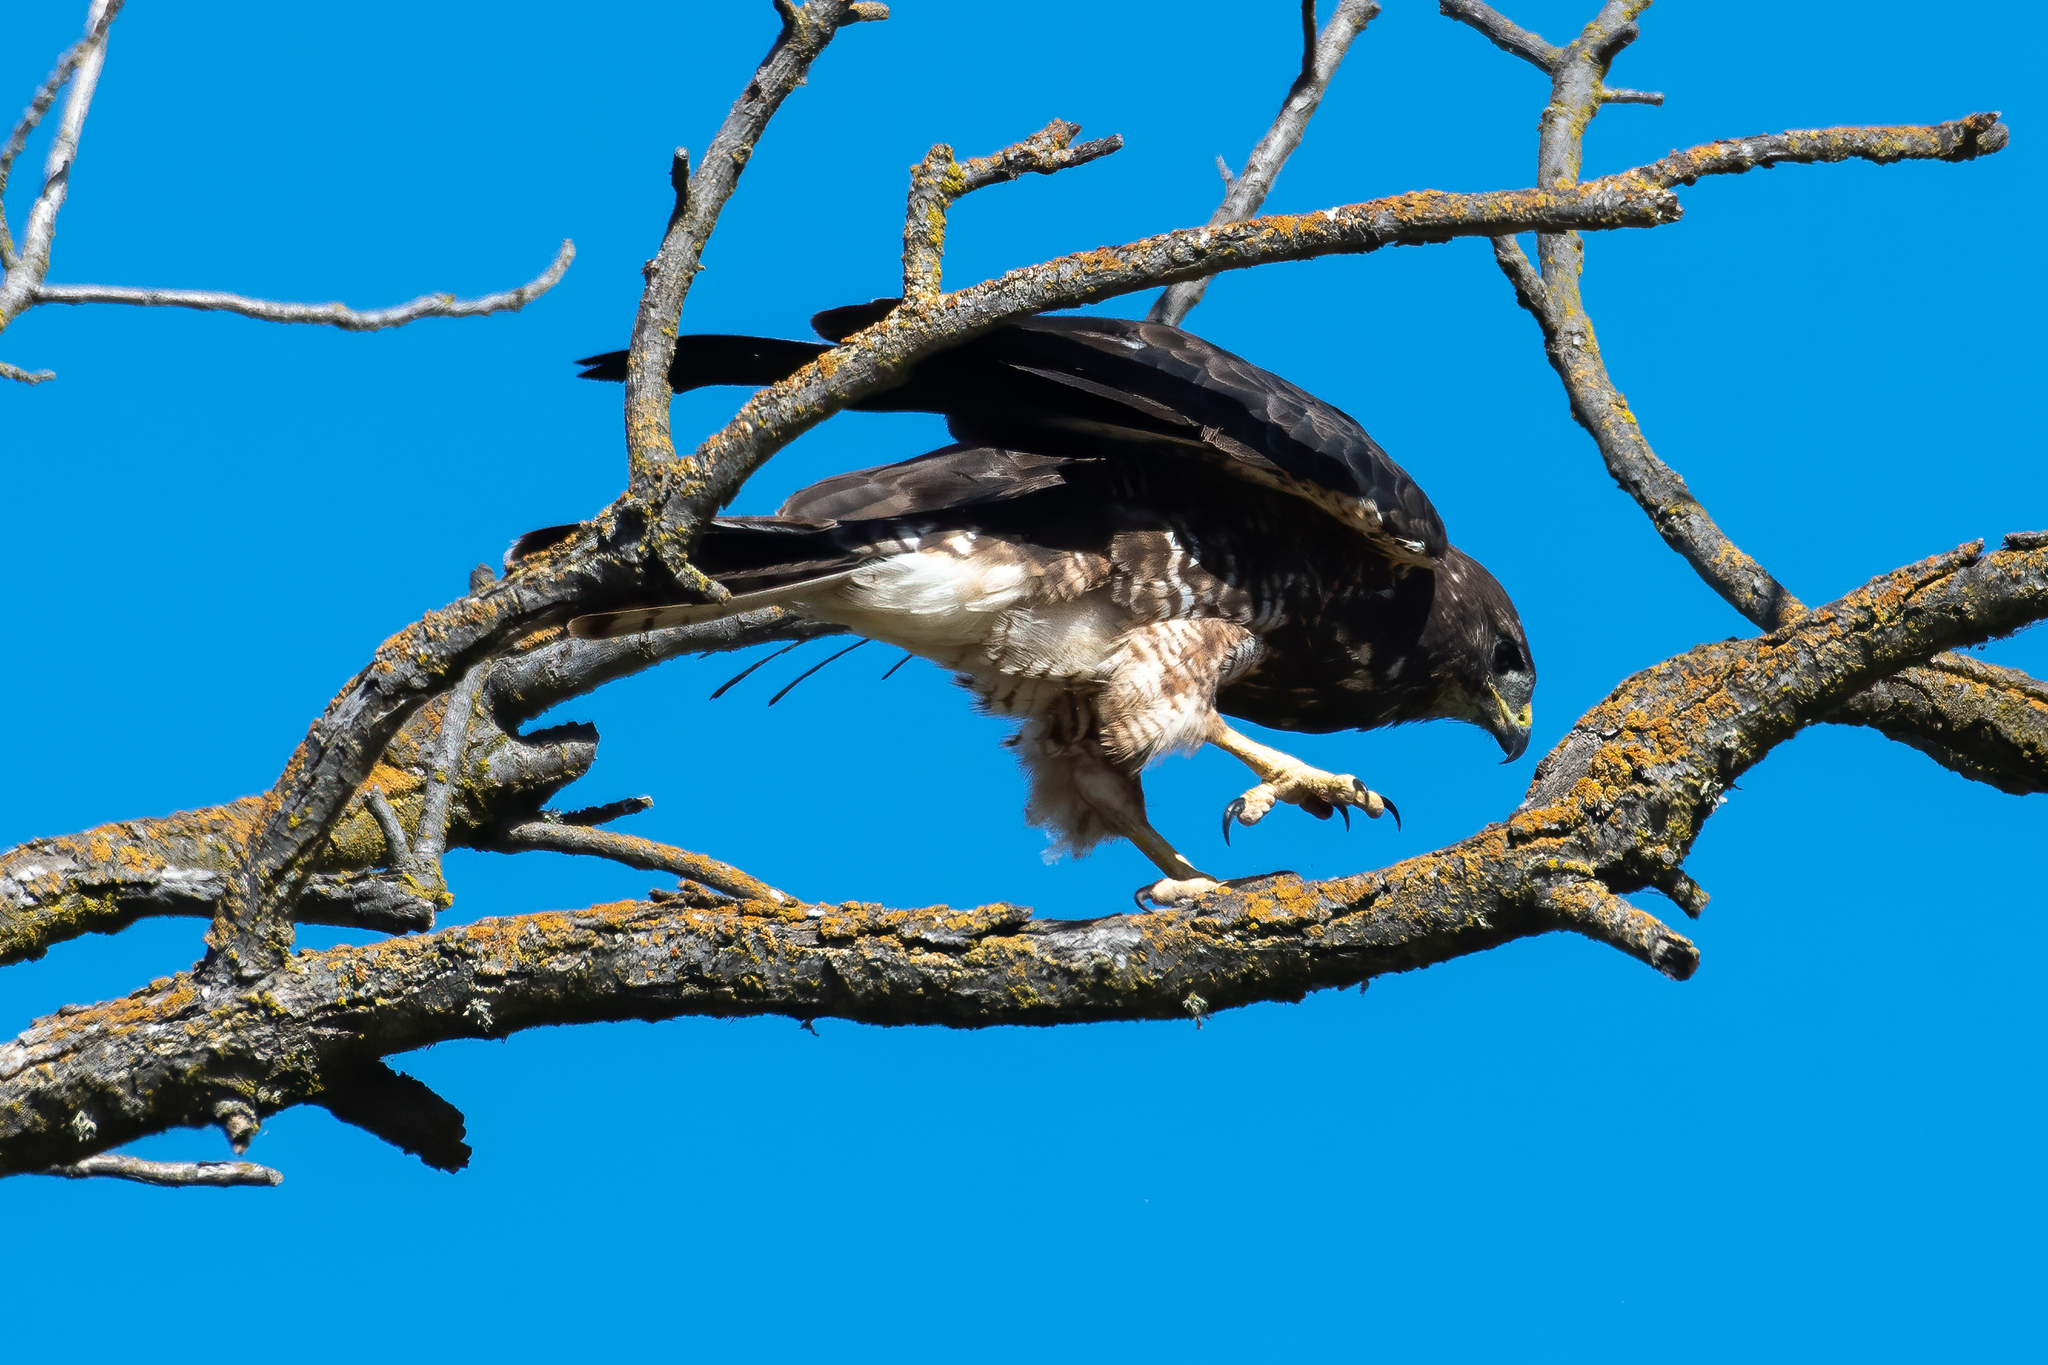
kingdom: Animalia
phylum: Chordata
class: Aves
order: Accipitriformes
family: Accipitridae
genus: Buteo
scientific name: Buteo swainsoni
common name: Swainson's hawk
